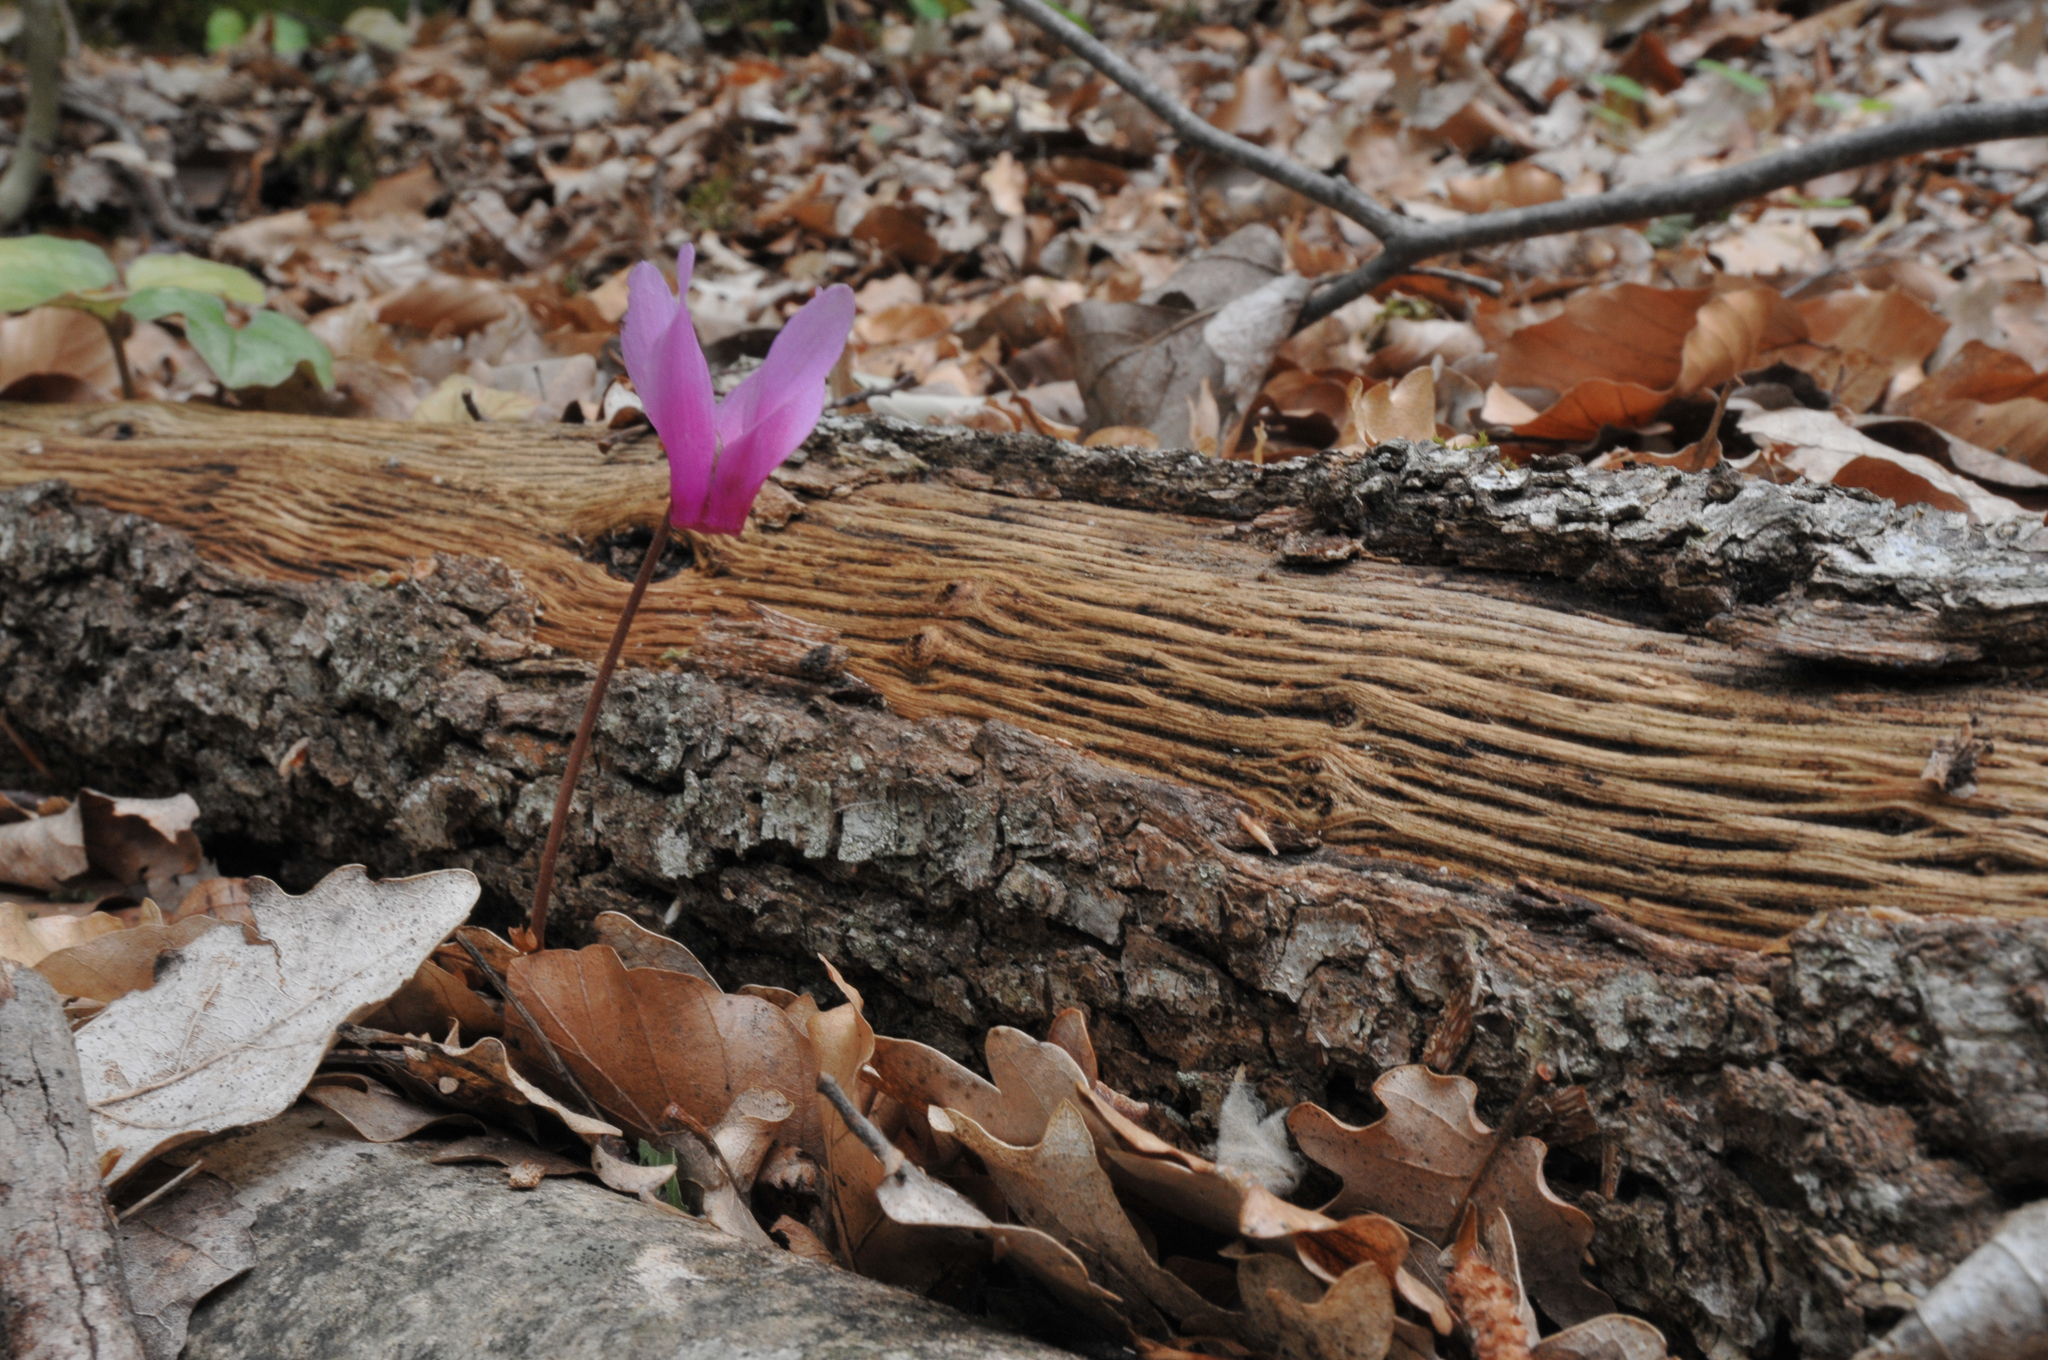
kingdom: Plantae
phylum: Tracheophyta
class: Magnoliopsida
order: Ericales
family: Primulaceae
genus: Cyclamen
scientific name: Cyclamen repandum
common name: Spring sowbread
